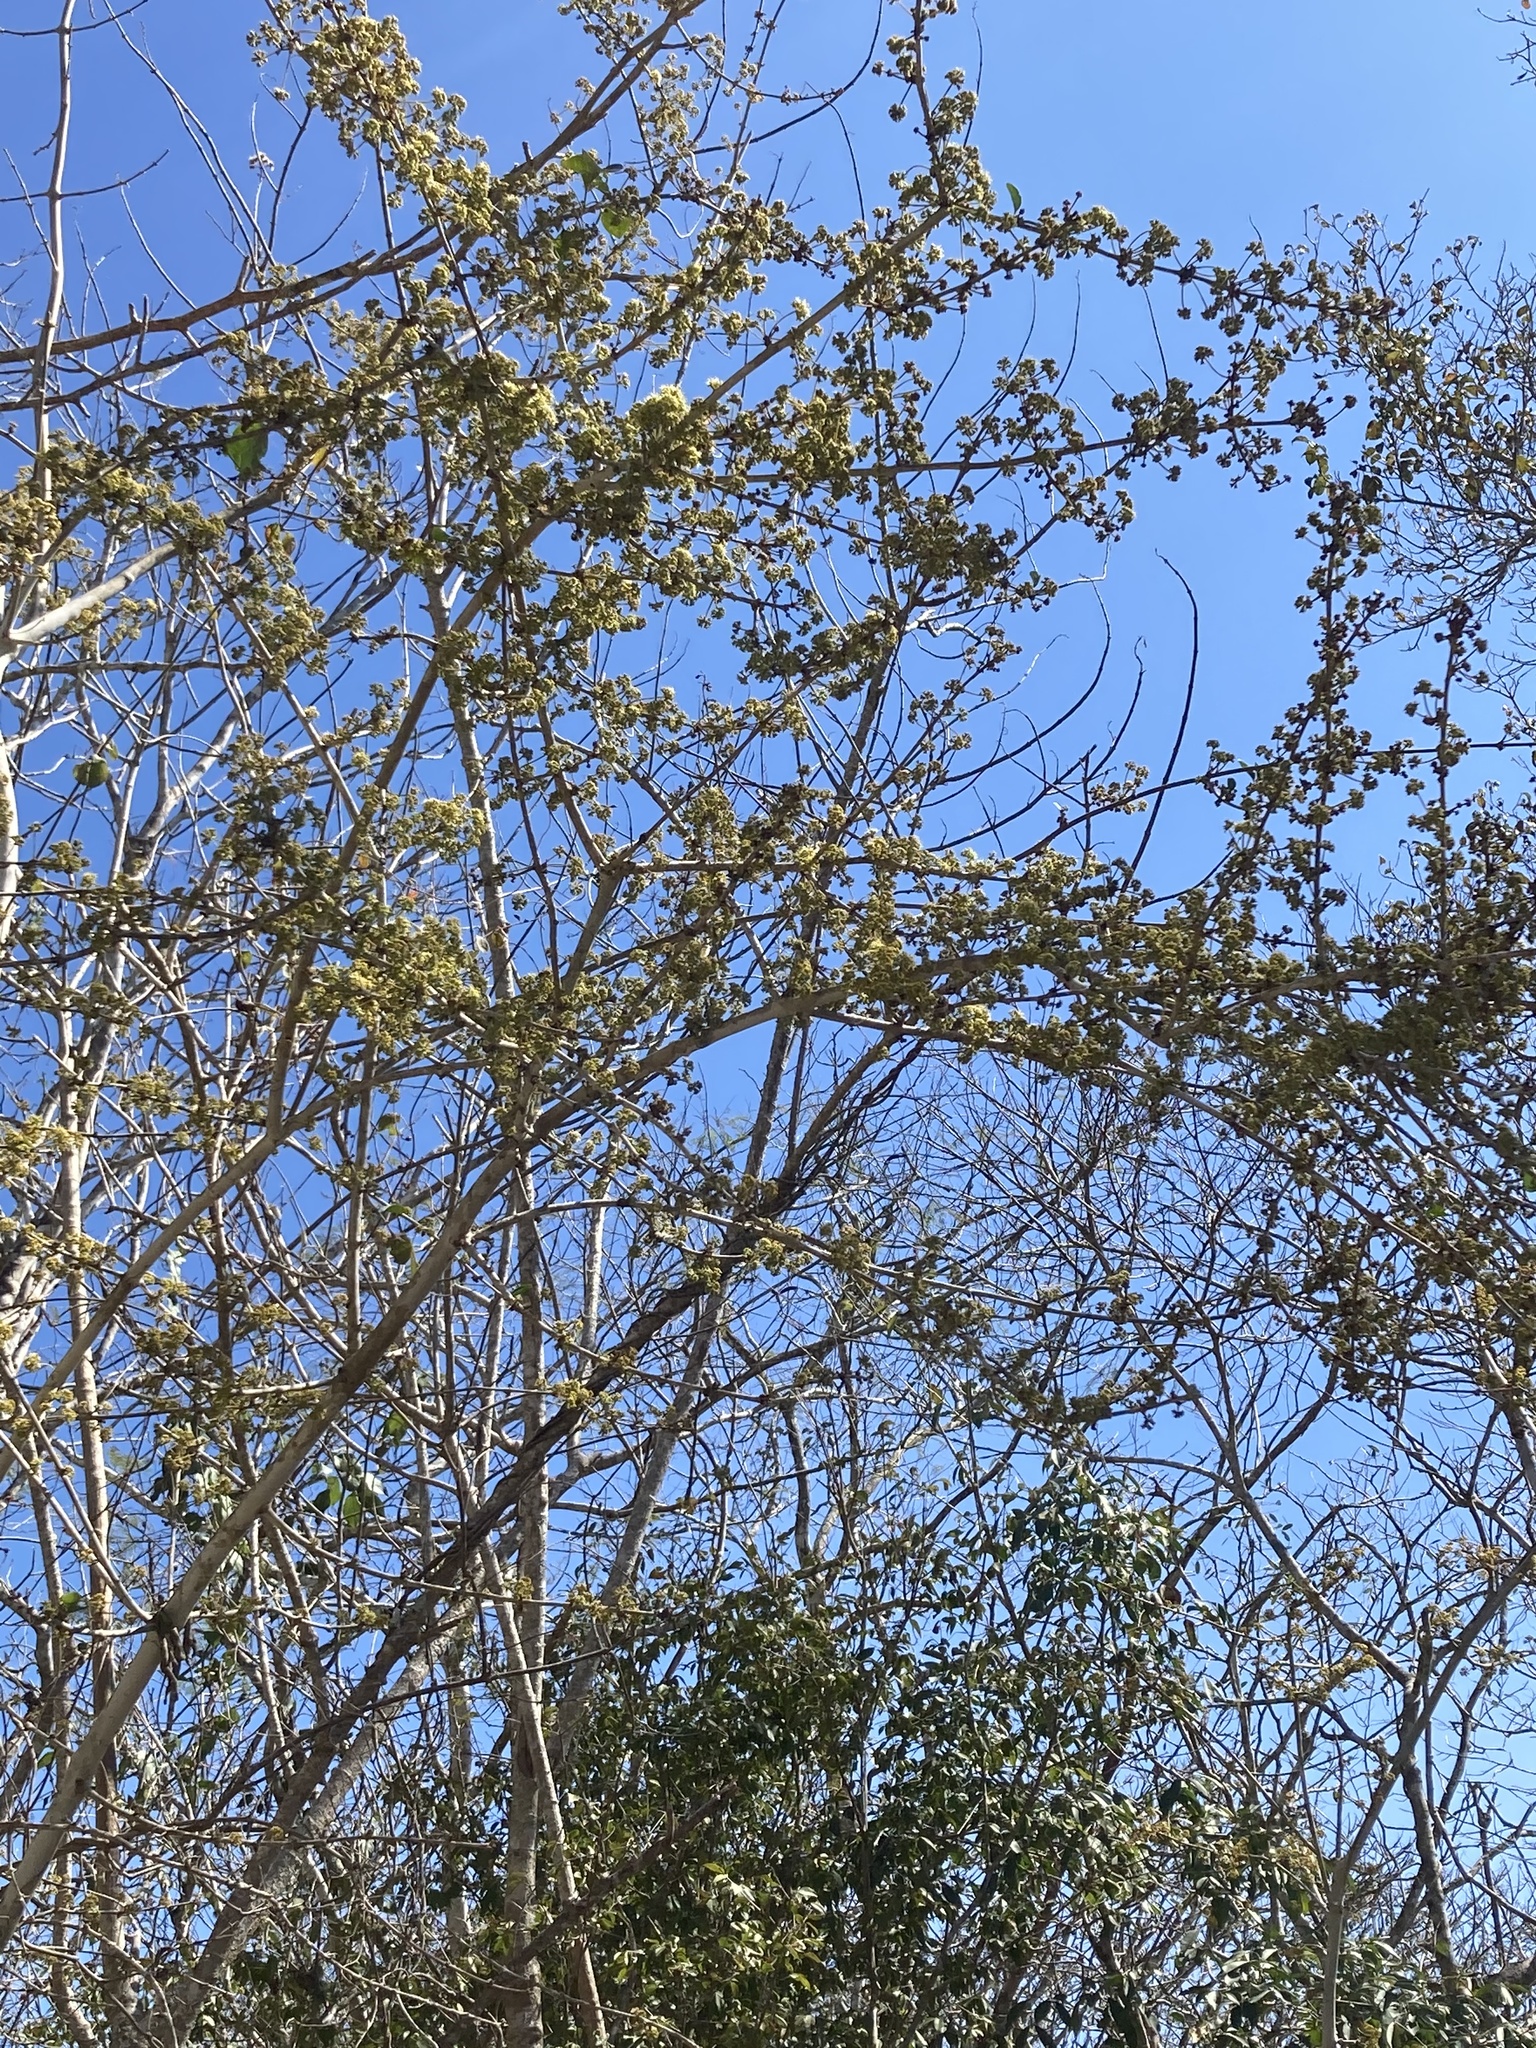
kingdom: Plantae
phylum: Tracheophyta
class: Magnoliopsida
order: Fabales
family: Fabaceae
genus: Piscidia
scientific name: Piscidia piscipula
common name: Florida fishpoison tree
